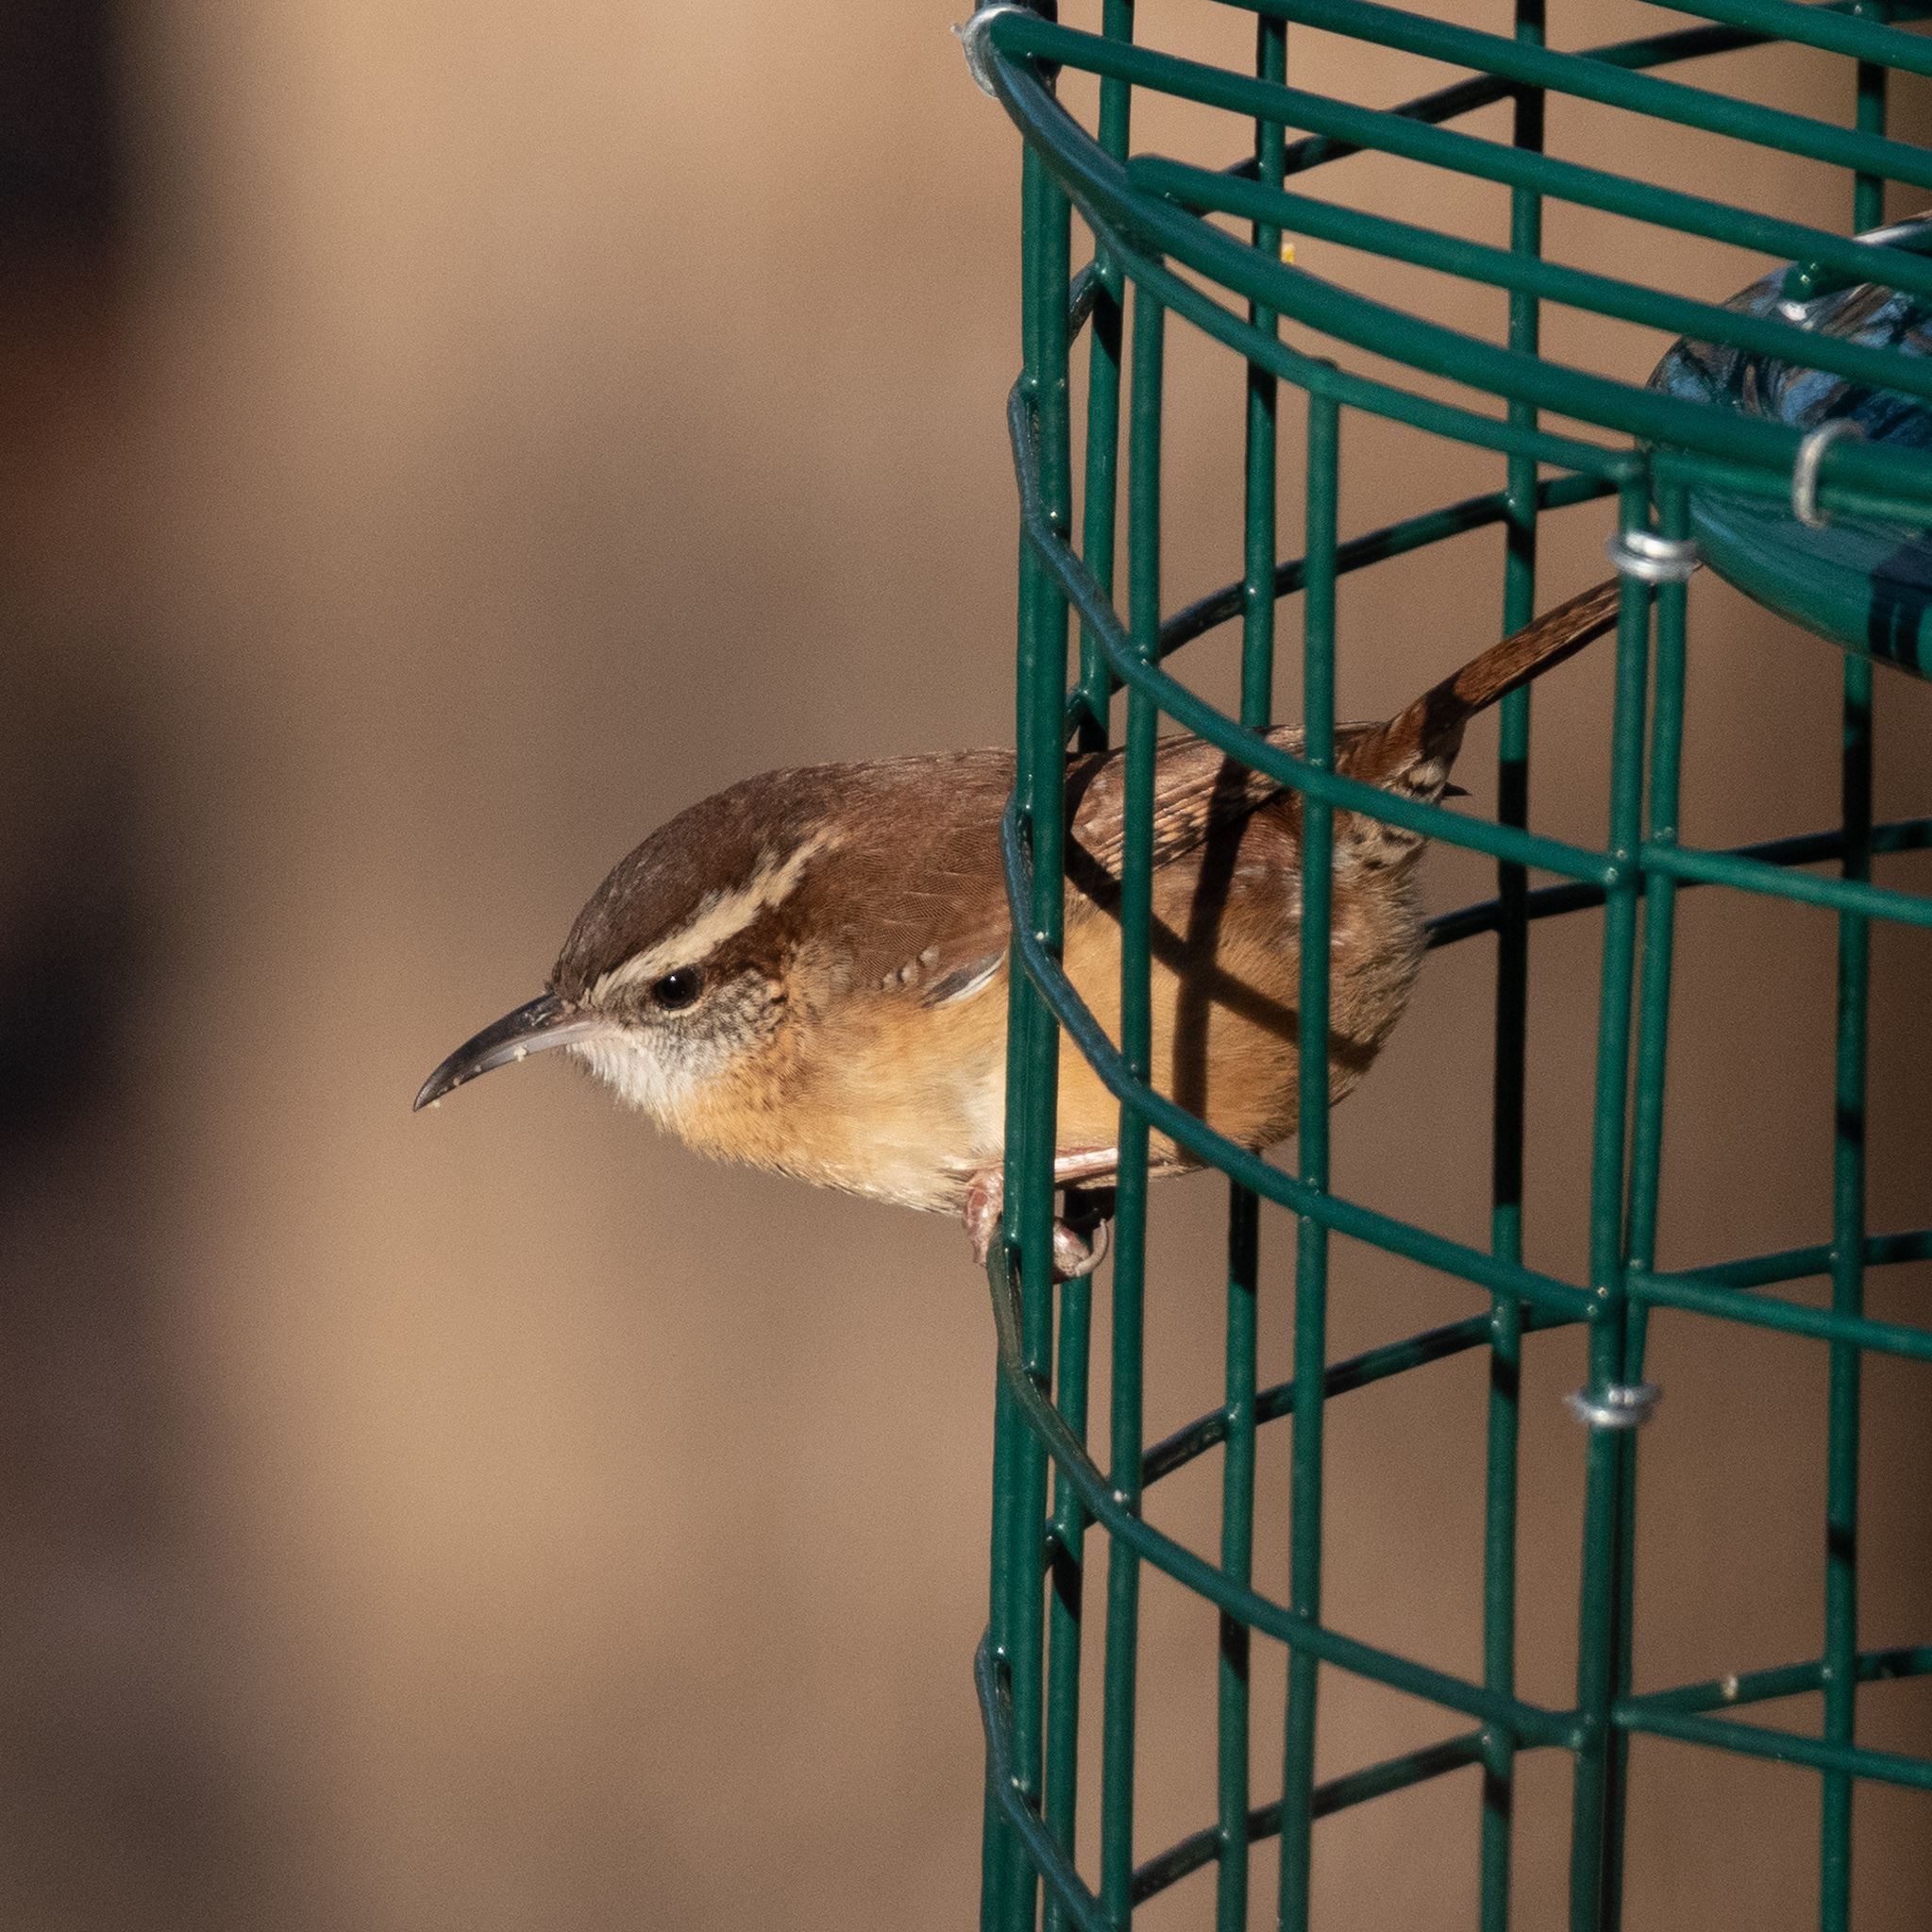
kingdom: Animalia
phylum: Chordata
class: Aves
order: Passeriformes
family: Troglodytidae
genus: Thryothorus
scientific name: Thryothorus ludovicianus
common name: Carolina wren
